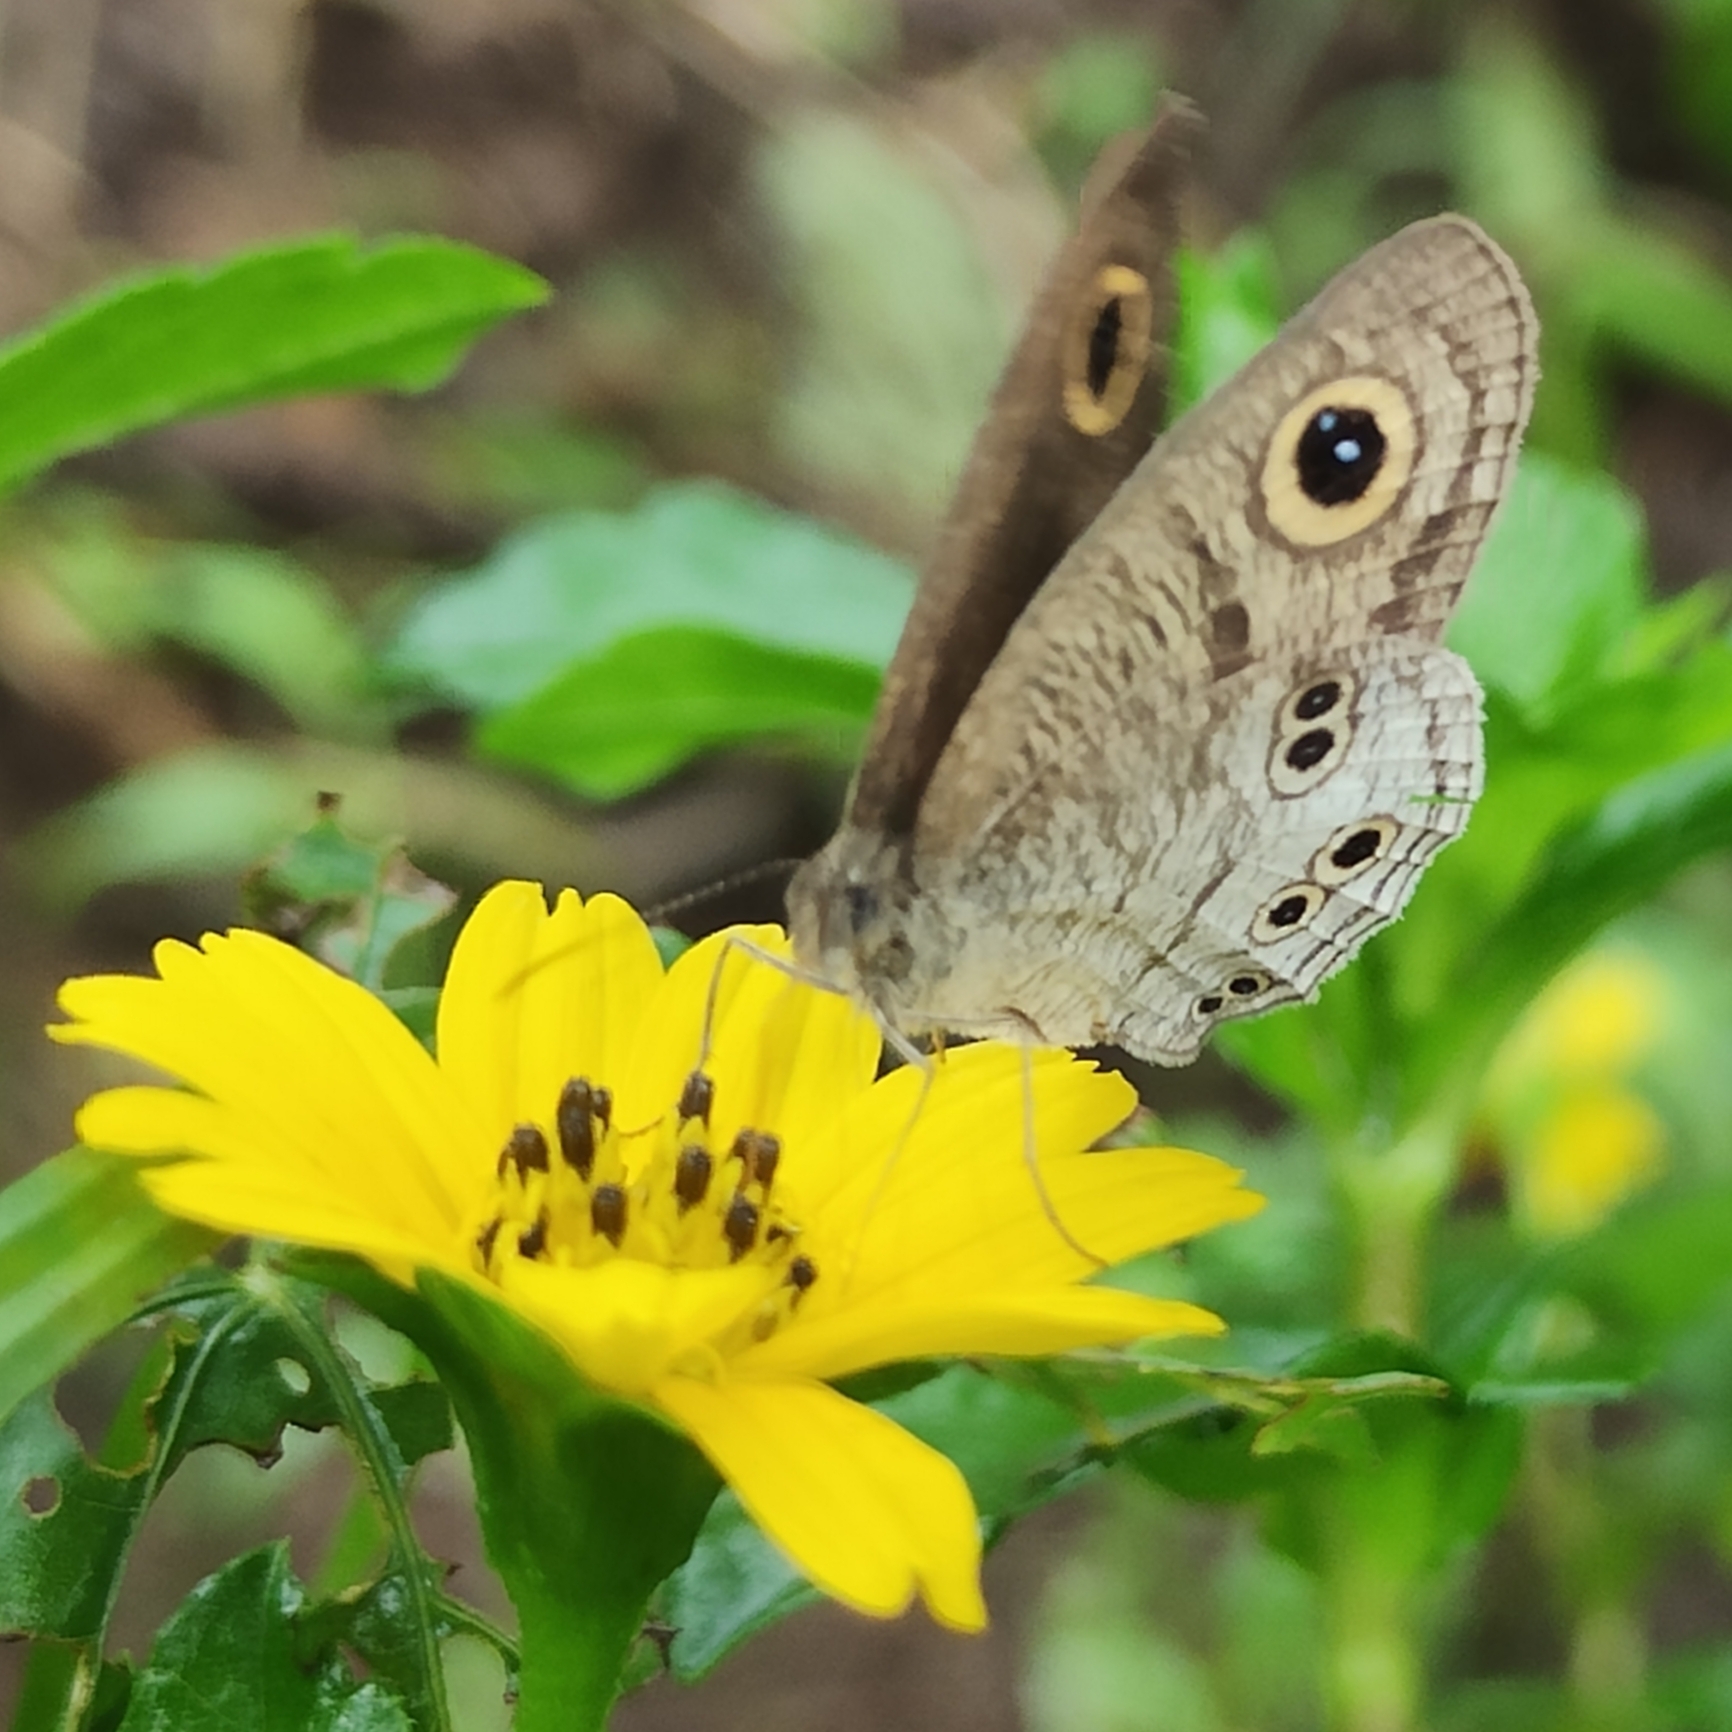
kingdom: Animalia
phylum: Arthropoda
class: Insecta
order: Lepidoptera
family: Nymphalidae
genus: Ypthima
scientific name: Ypthima aphnius
